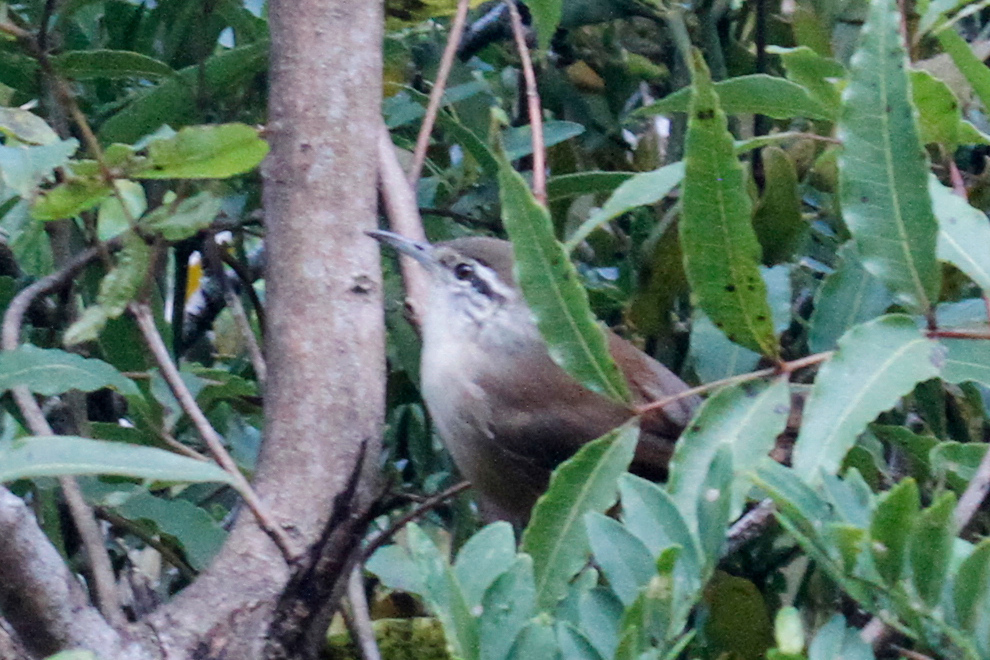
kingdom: Animalia
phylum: Chordata
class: Aves
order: Passeriformes
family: Troglodytidae
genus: Cantorchilus
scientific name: Cantorchilus modestus
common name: Cabanis's wren
